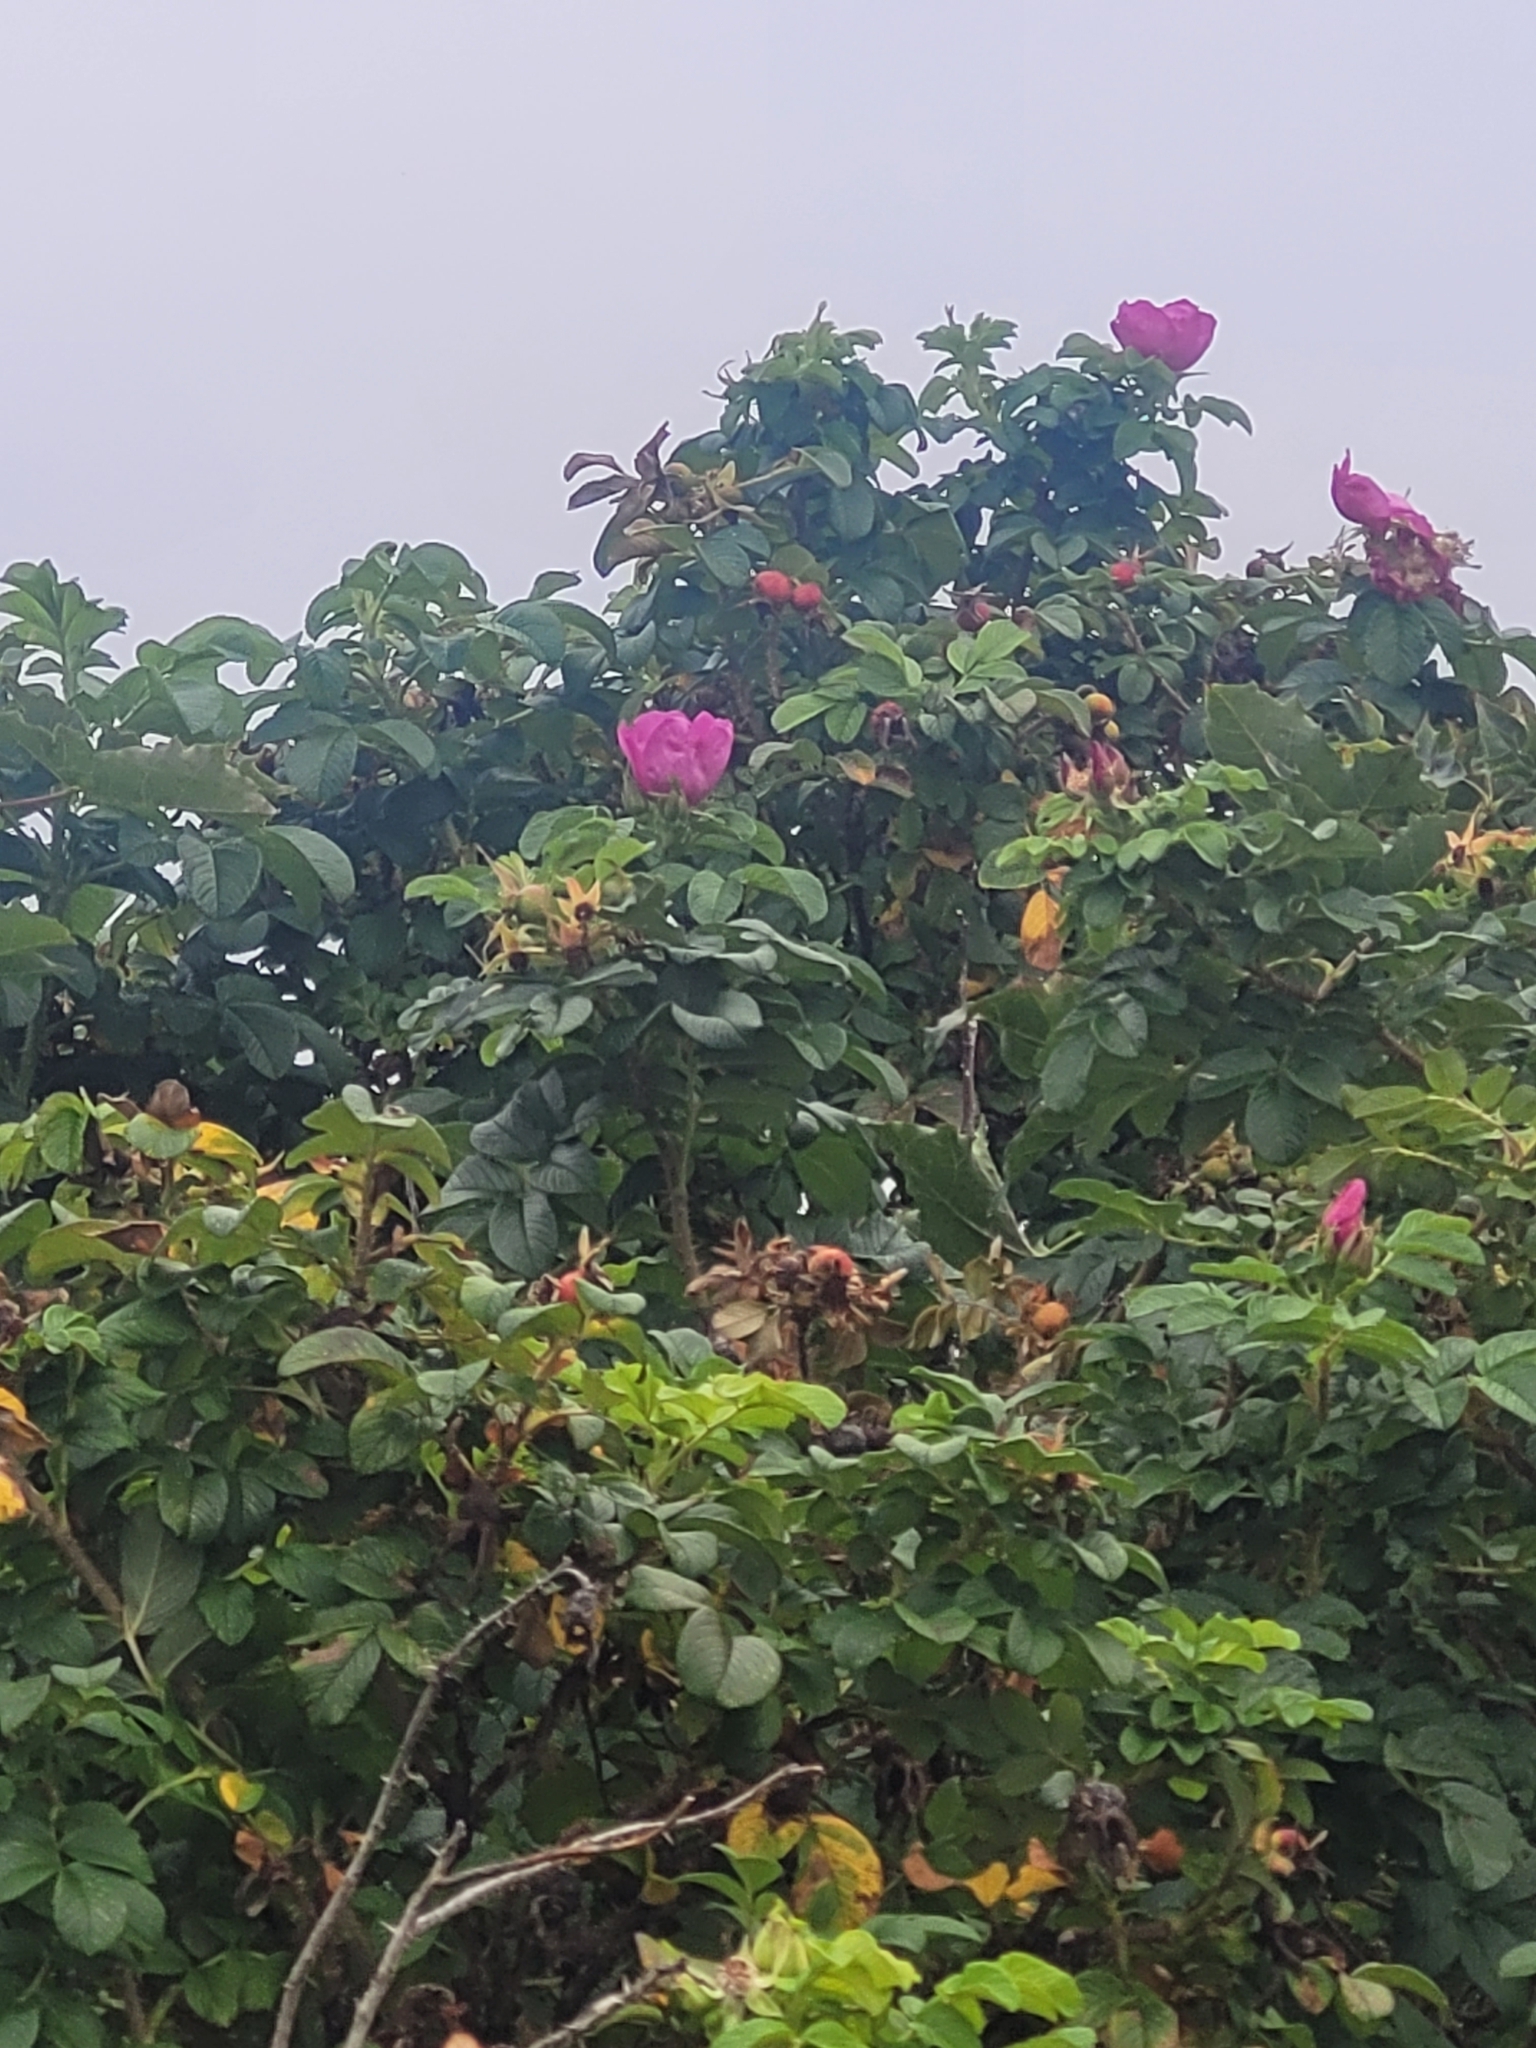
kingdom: Plantae
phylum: Tracheophyta
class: Magnoliopsida
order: Rosales
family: Rosaceae
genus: Rosa
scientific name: Rosa rugosa
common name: Japanese rose
